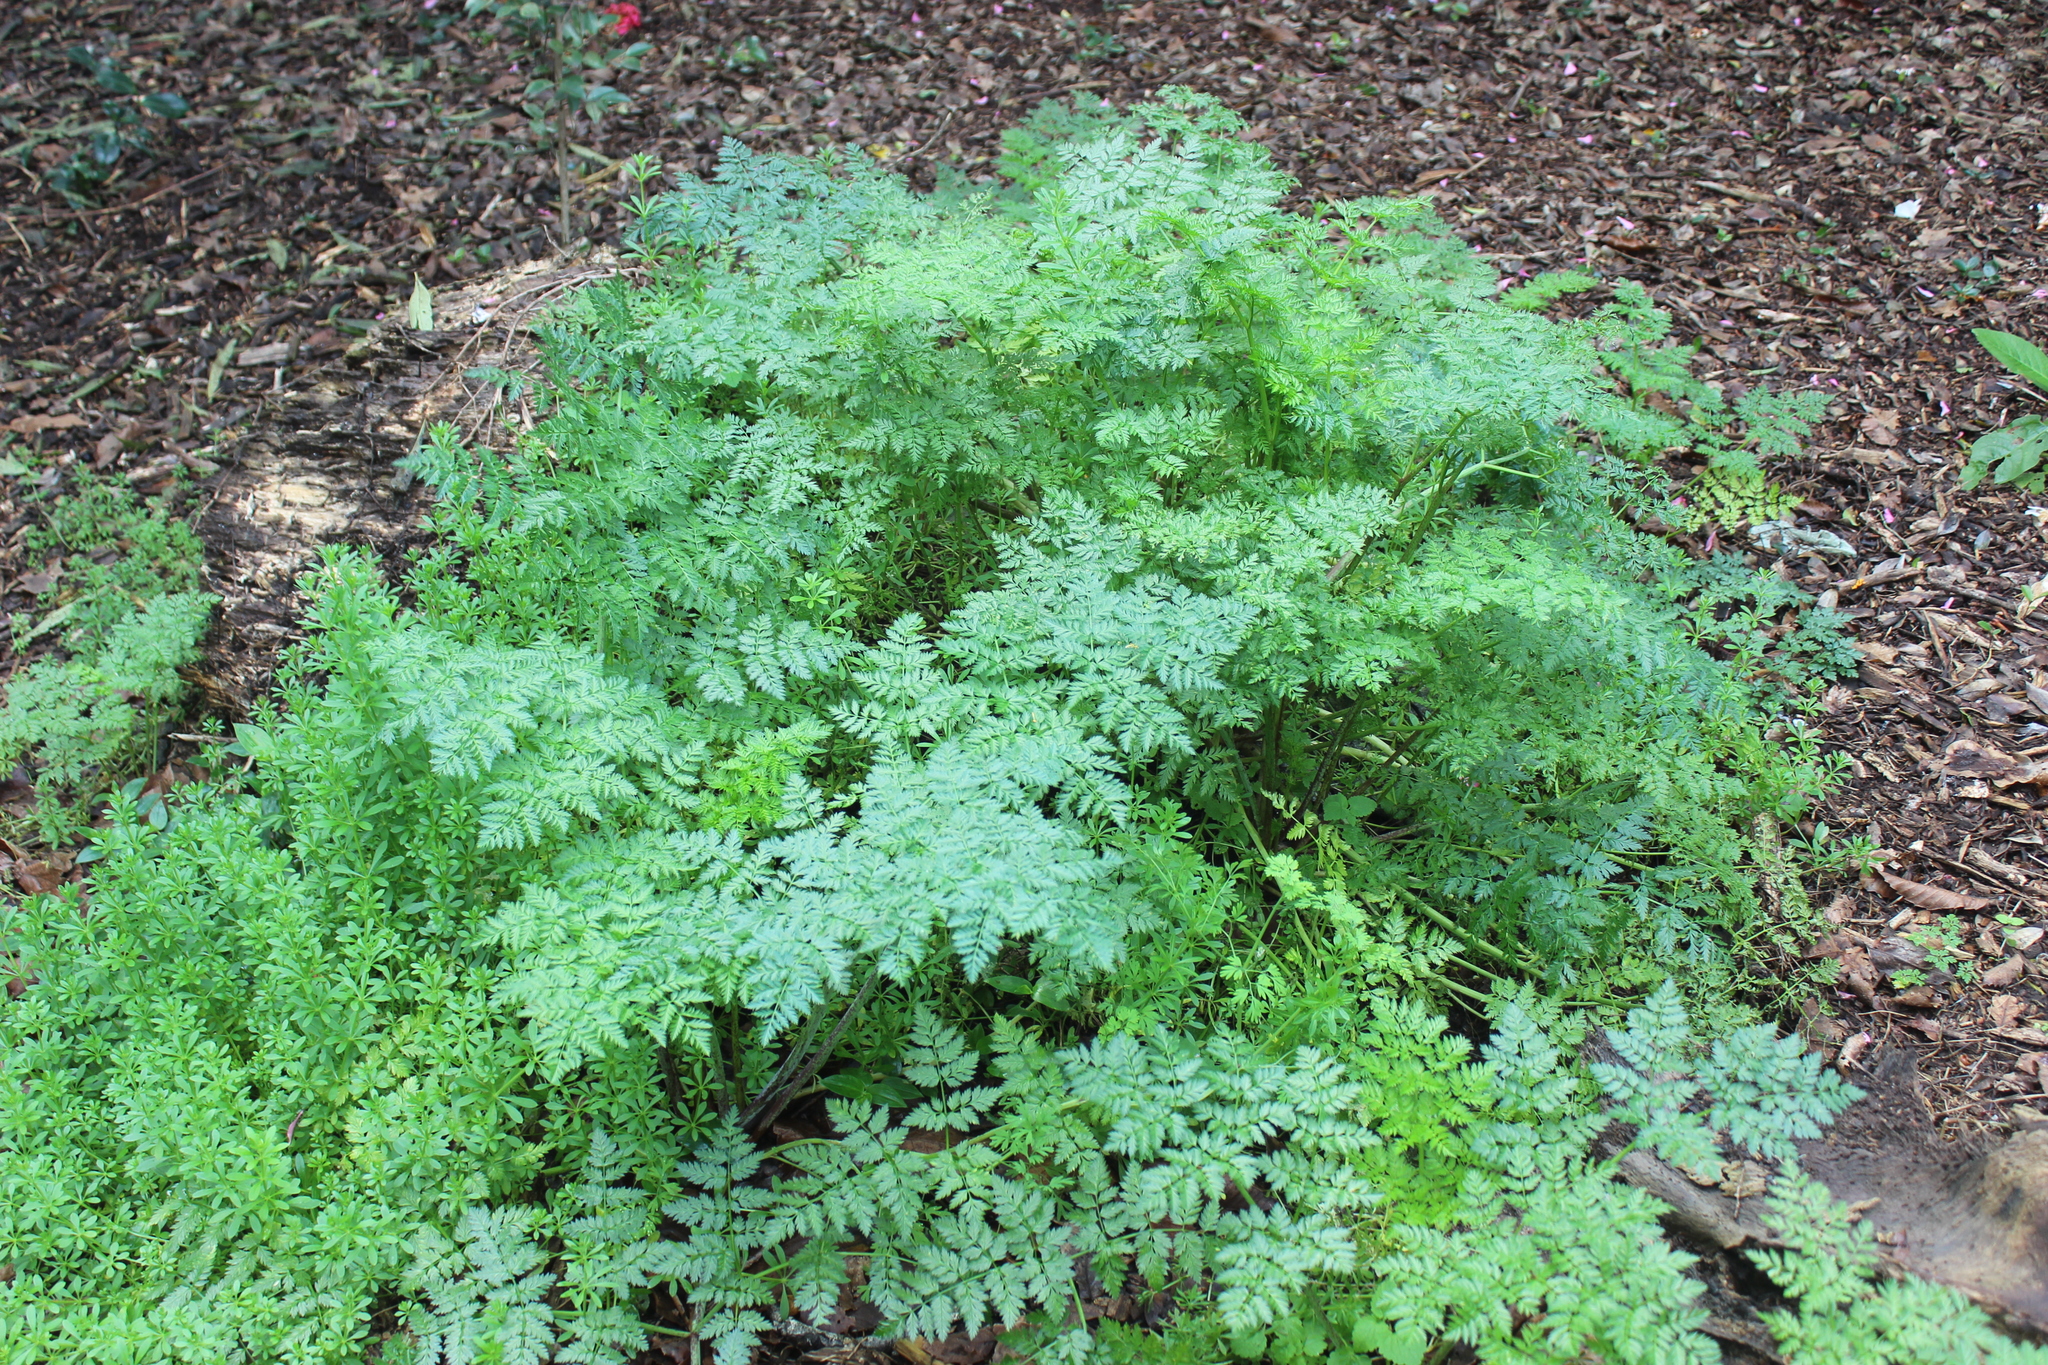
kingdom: Plantae
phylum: Tracheophyta
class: Magnoliopsida
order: Apiales
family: Apiaceae
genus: Conium
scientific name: Conium maculatum
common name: Hemlock
